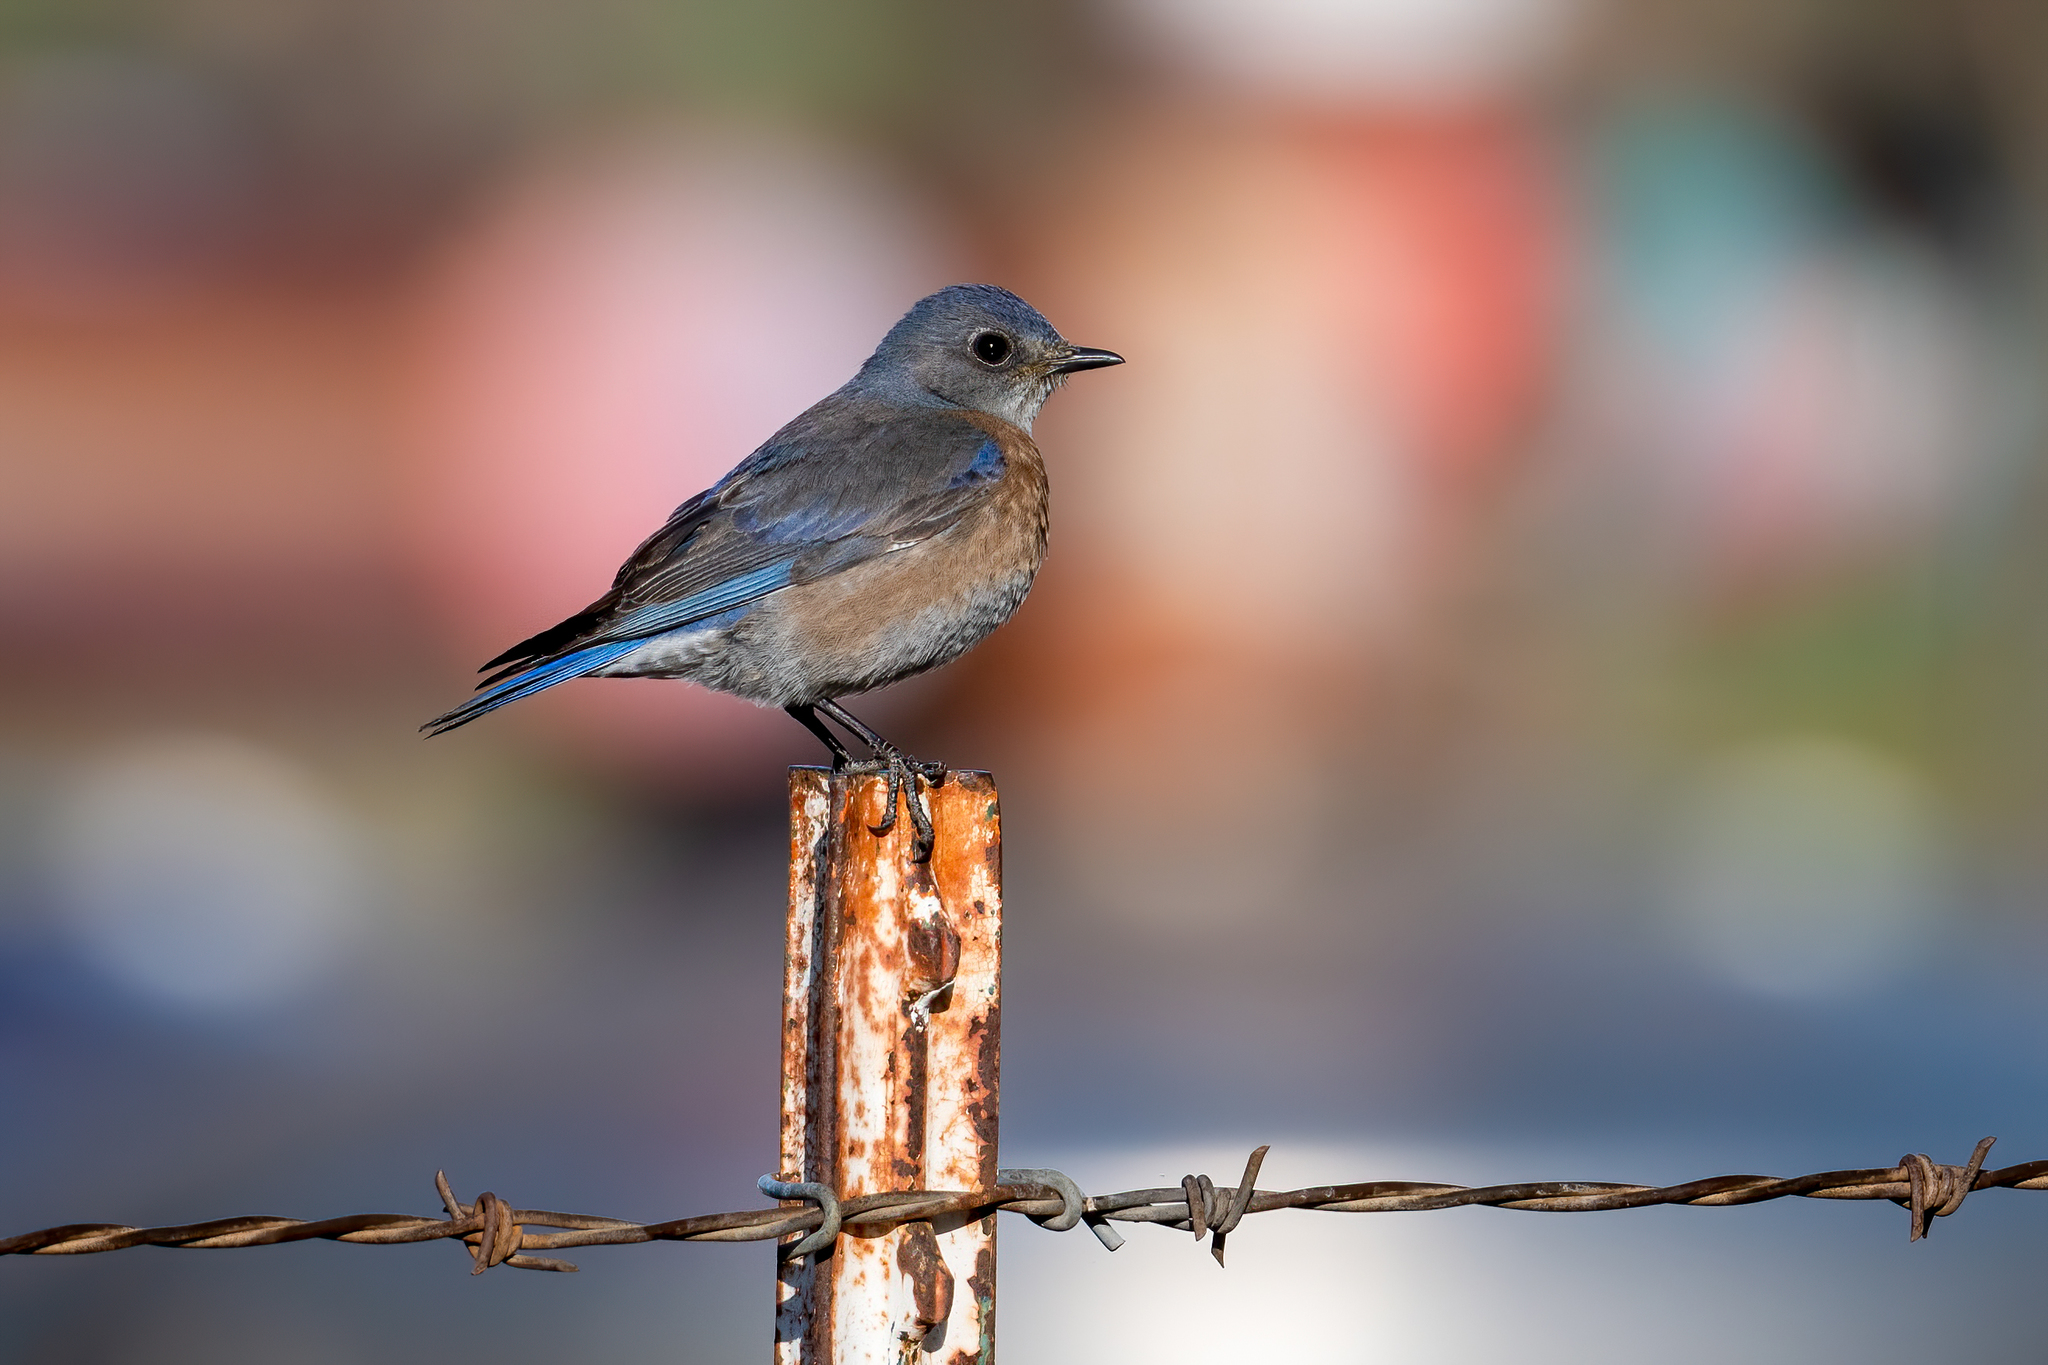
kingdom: Animalia
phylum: Chordata
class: Aves
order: Passeriformes
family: Turdidae
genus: Sialia
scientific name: Sialia mexicana
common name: Western bluebird
